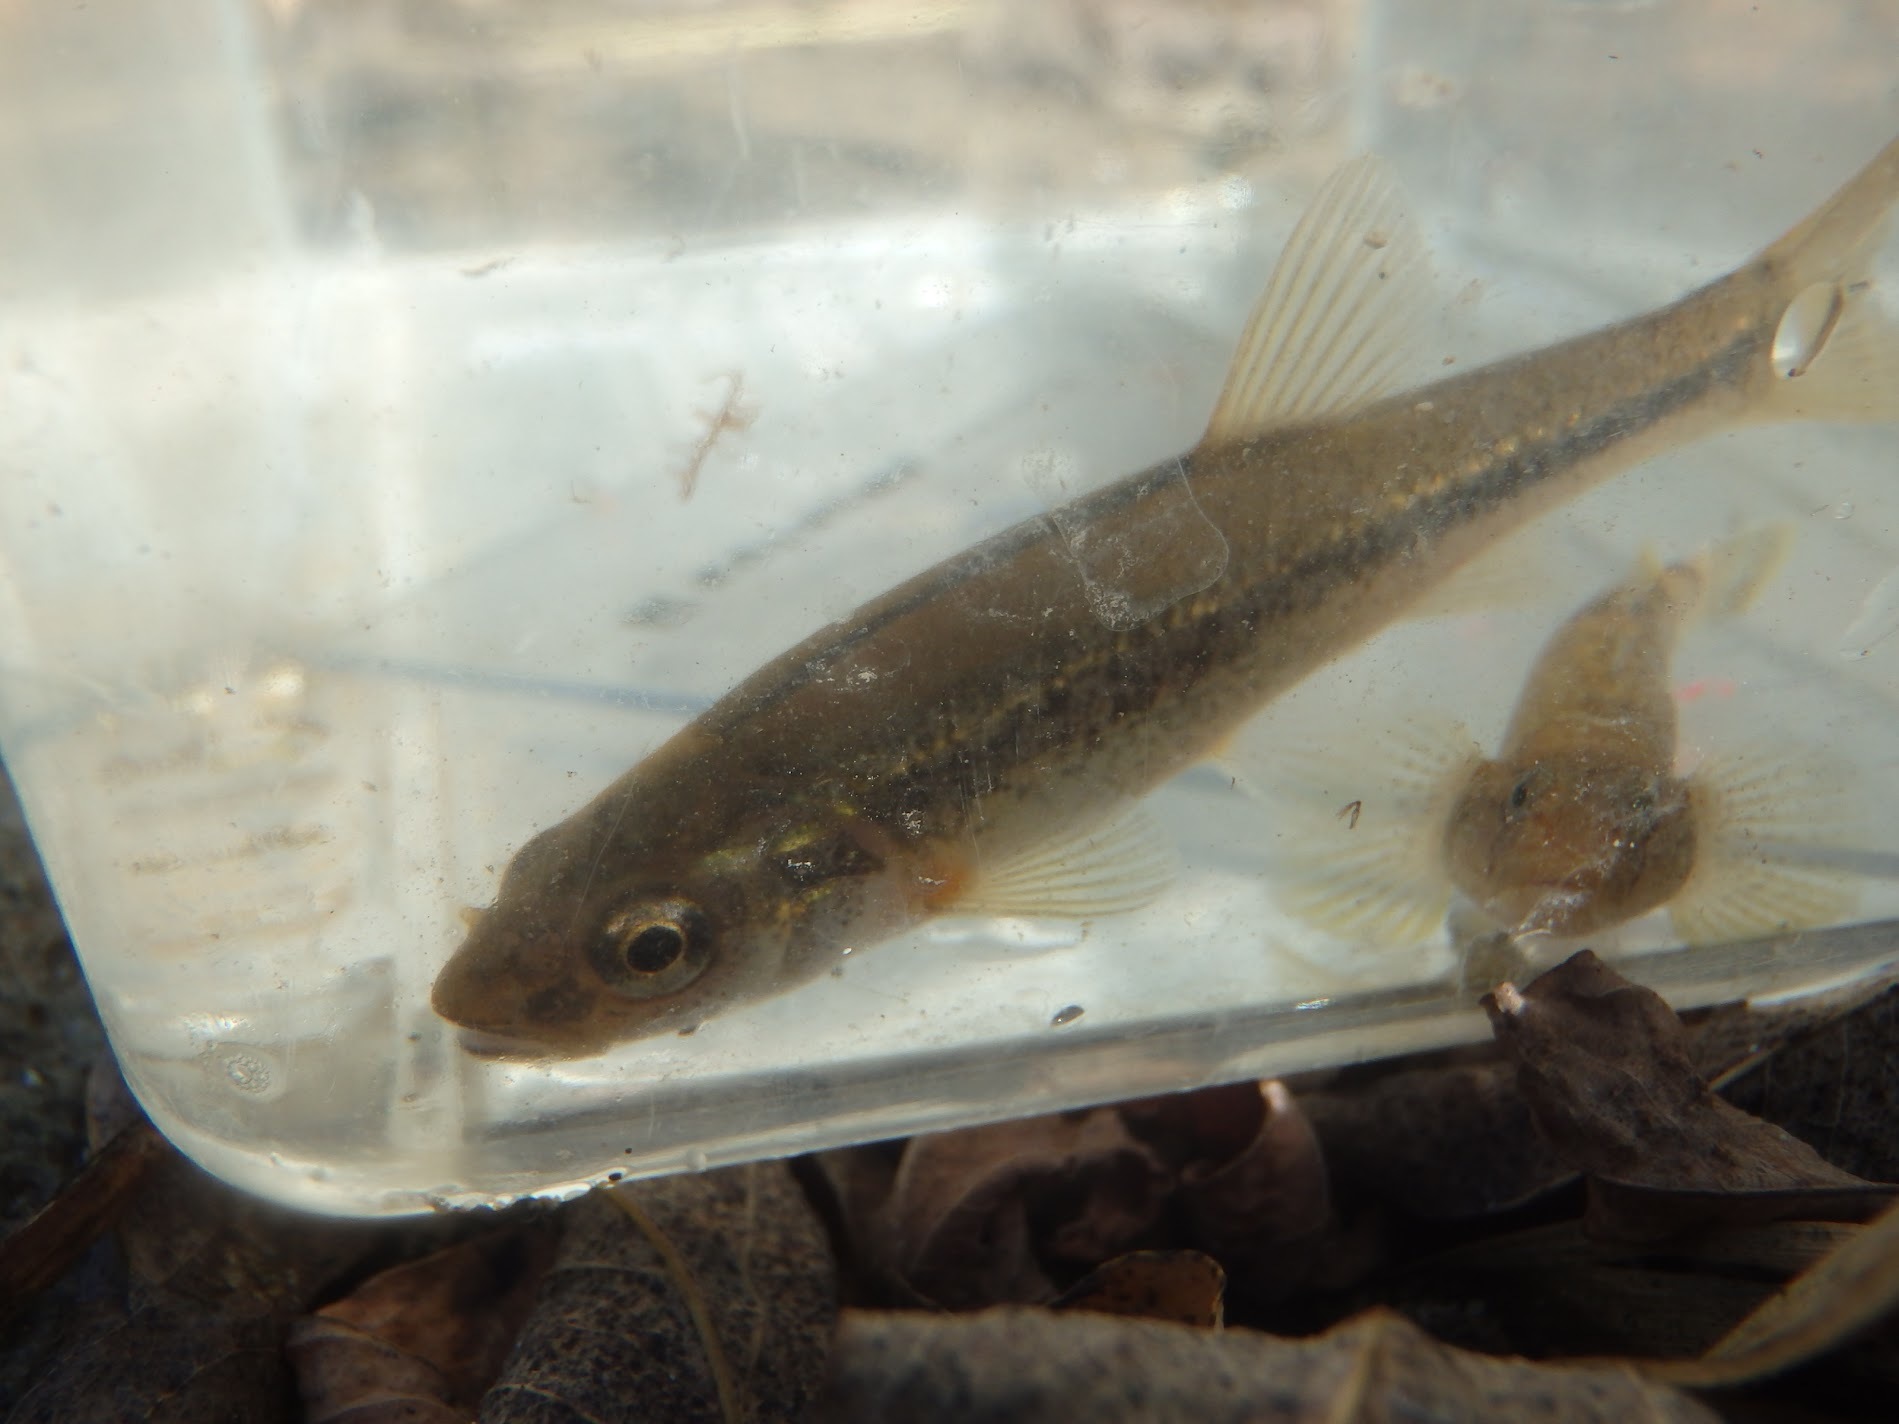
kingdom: Animalia
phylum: Chordata
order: Cypriniformes
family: Cyprinidae
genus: Rhynchocypris
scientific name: Rhynchocypris steindachneri
